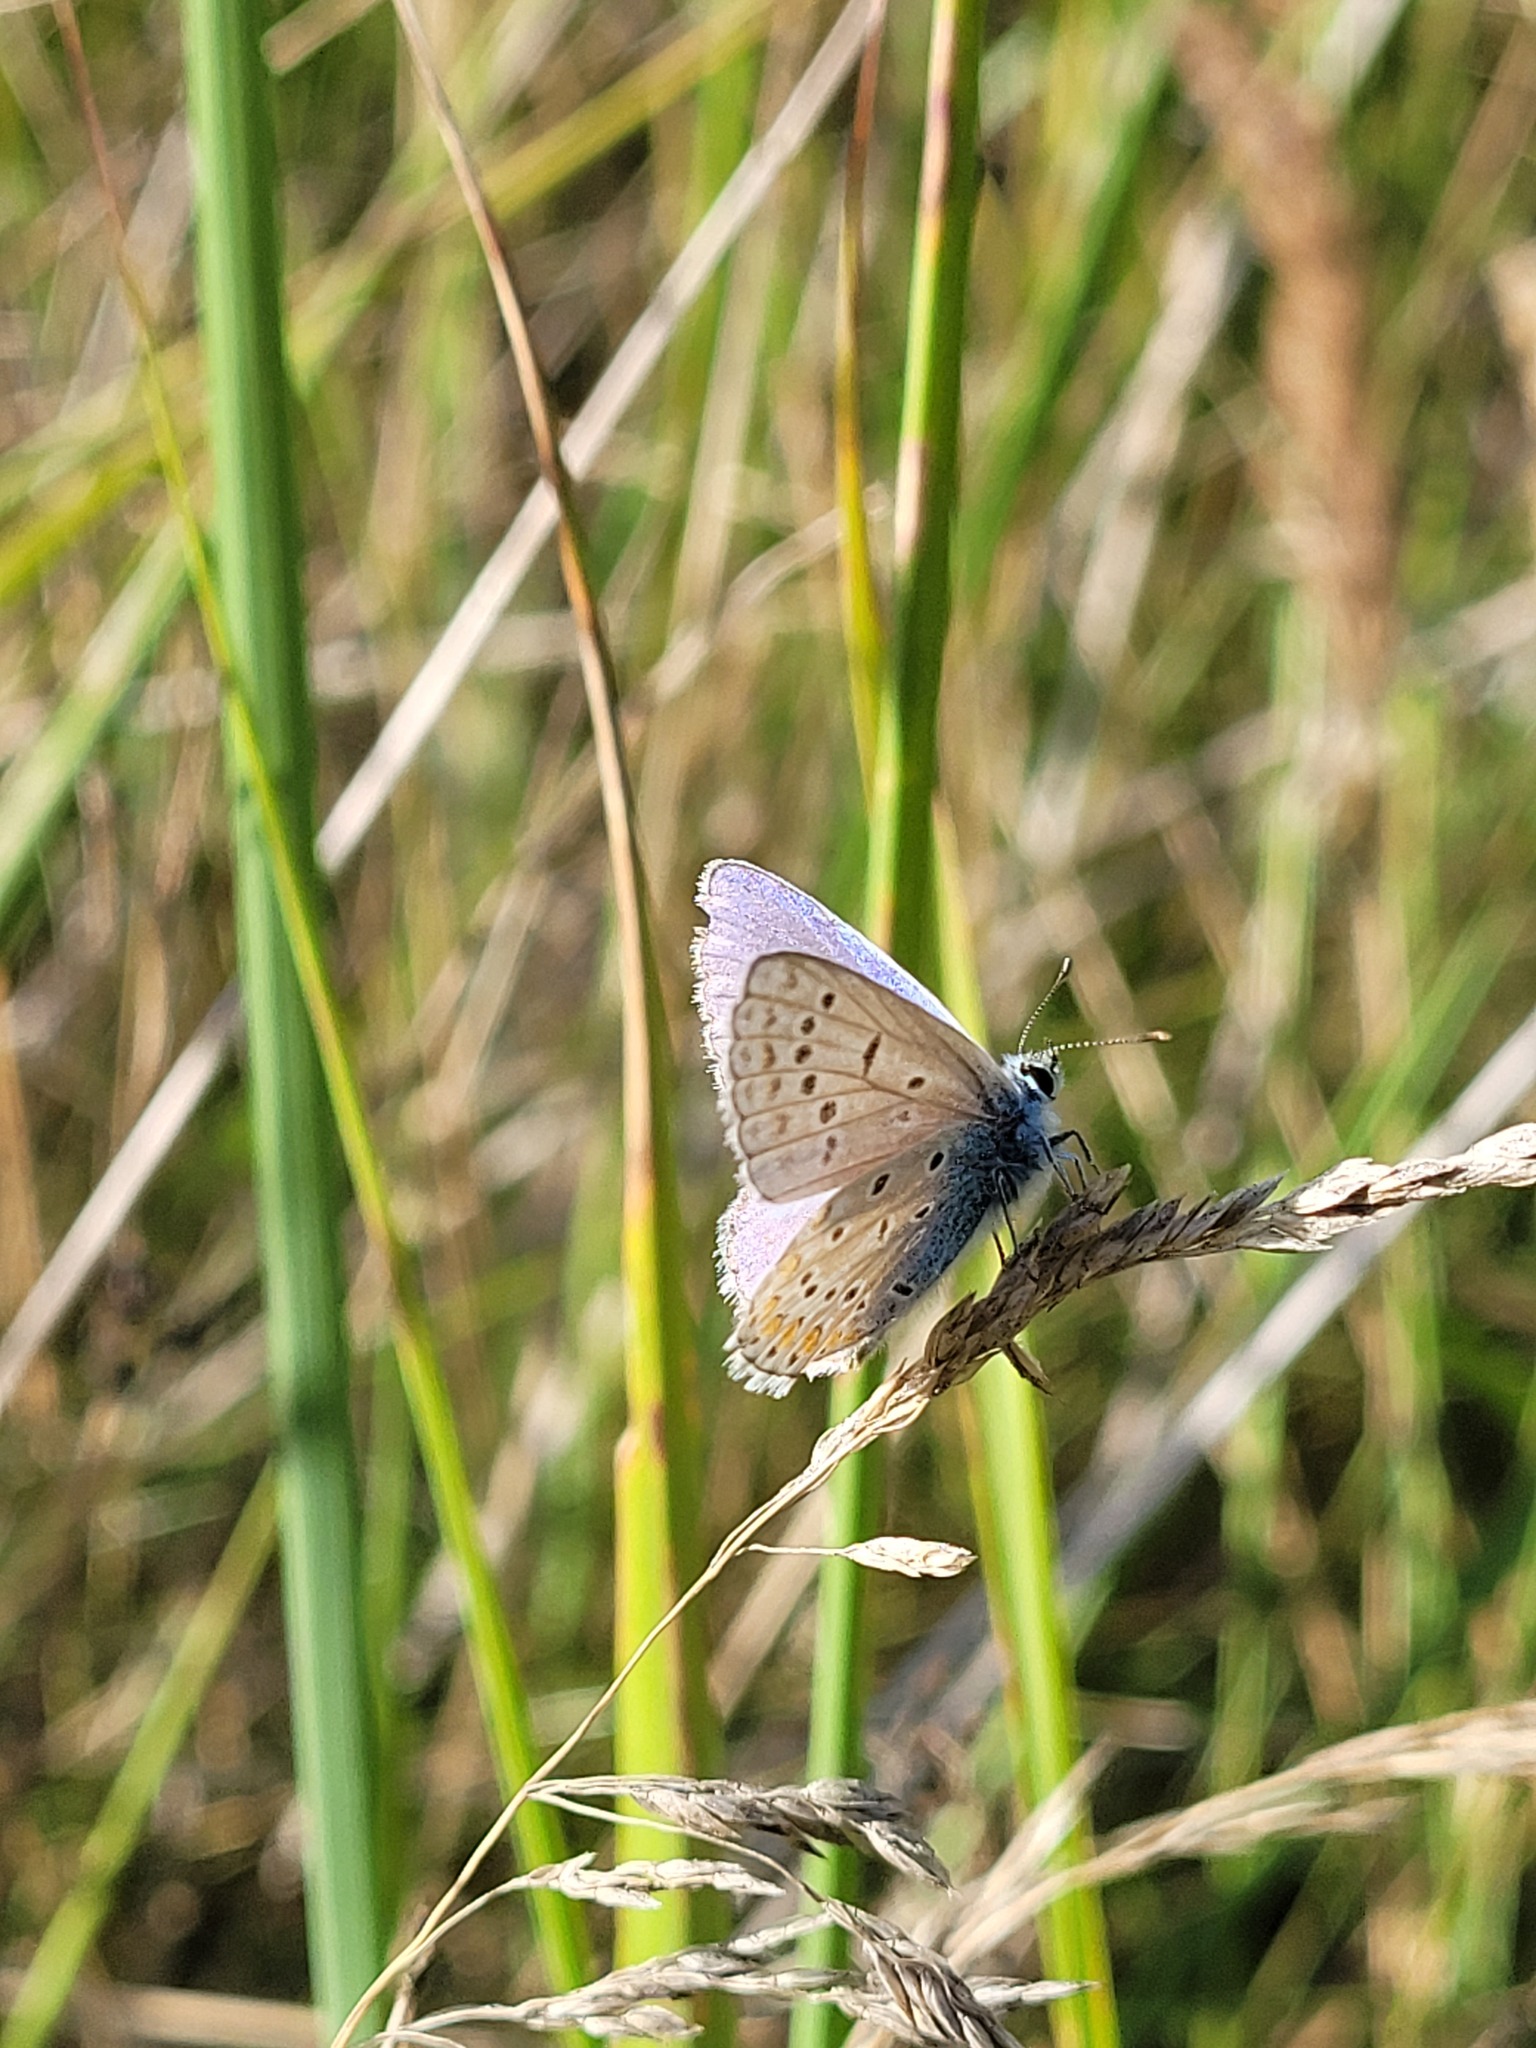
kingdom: Animalia
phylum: Arthropoda
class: Insecta
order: Lepidoptera
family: Lycaenidae
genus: Polyommatus
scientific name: Polyommatus icarus
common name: Common blue
